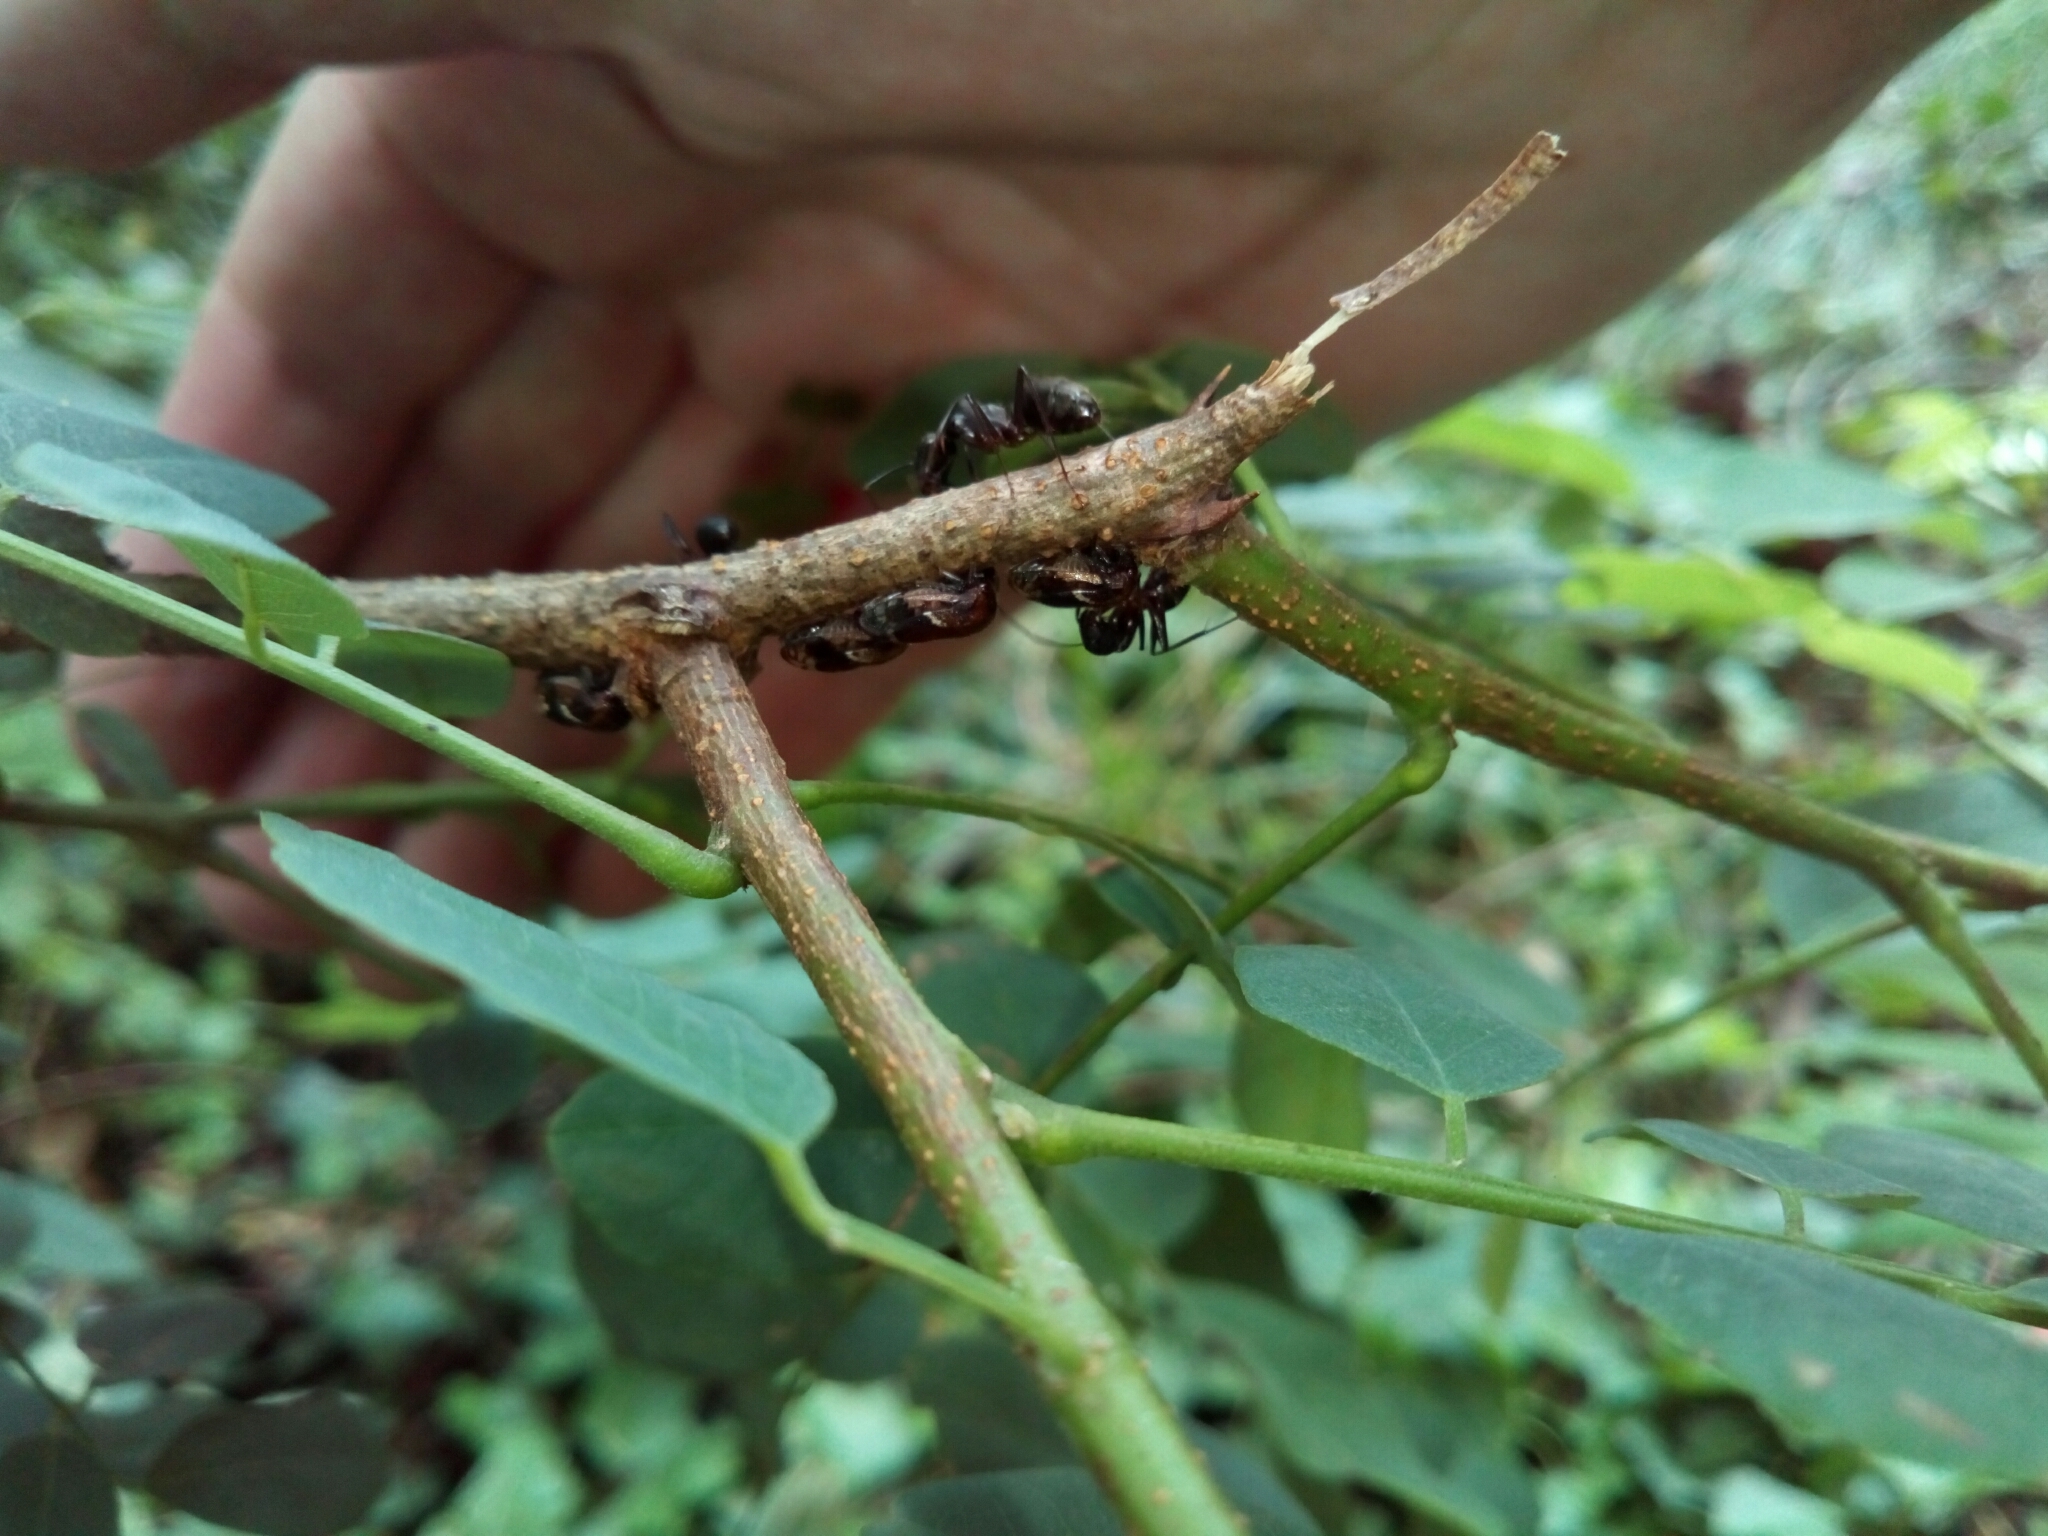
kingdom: Animalia
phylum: Arthropoda
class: Insecta
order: Hymenoptera
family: Formicidae
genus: Camponotus
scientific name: Camponotus chromaiodes
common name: Red carpenter ant
